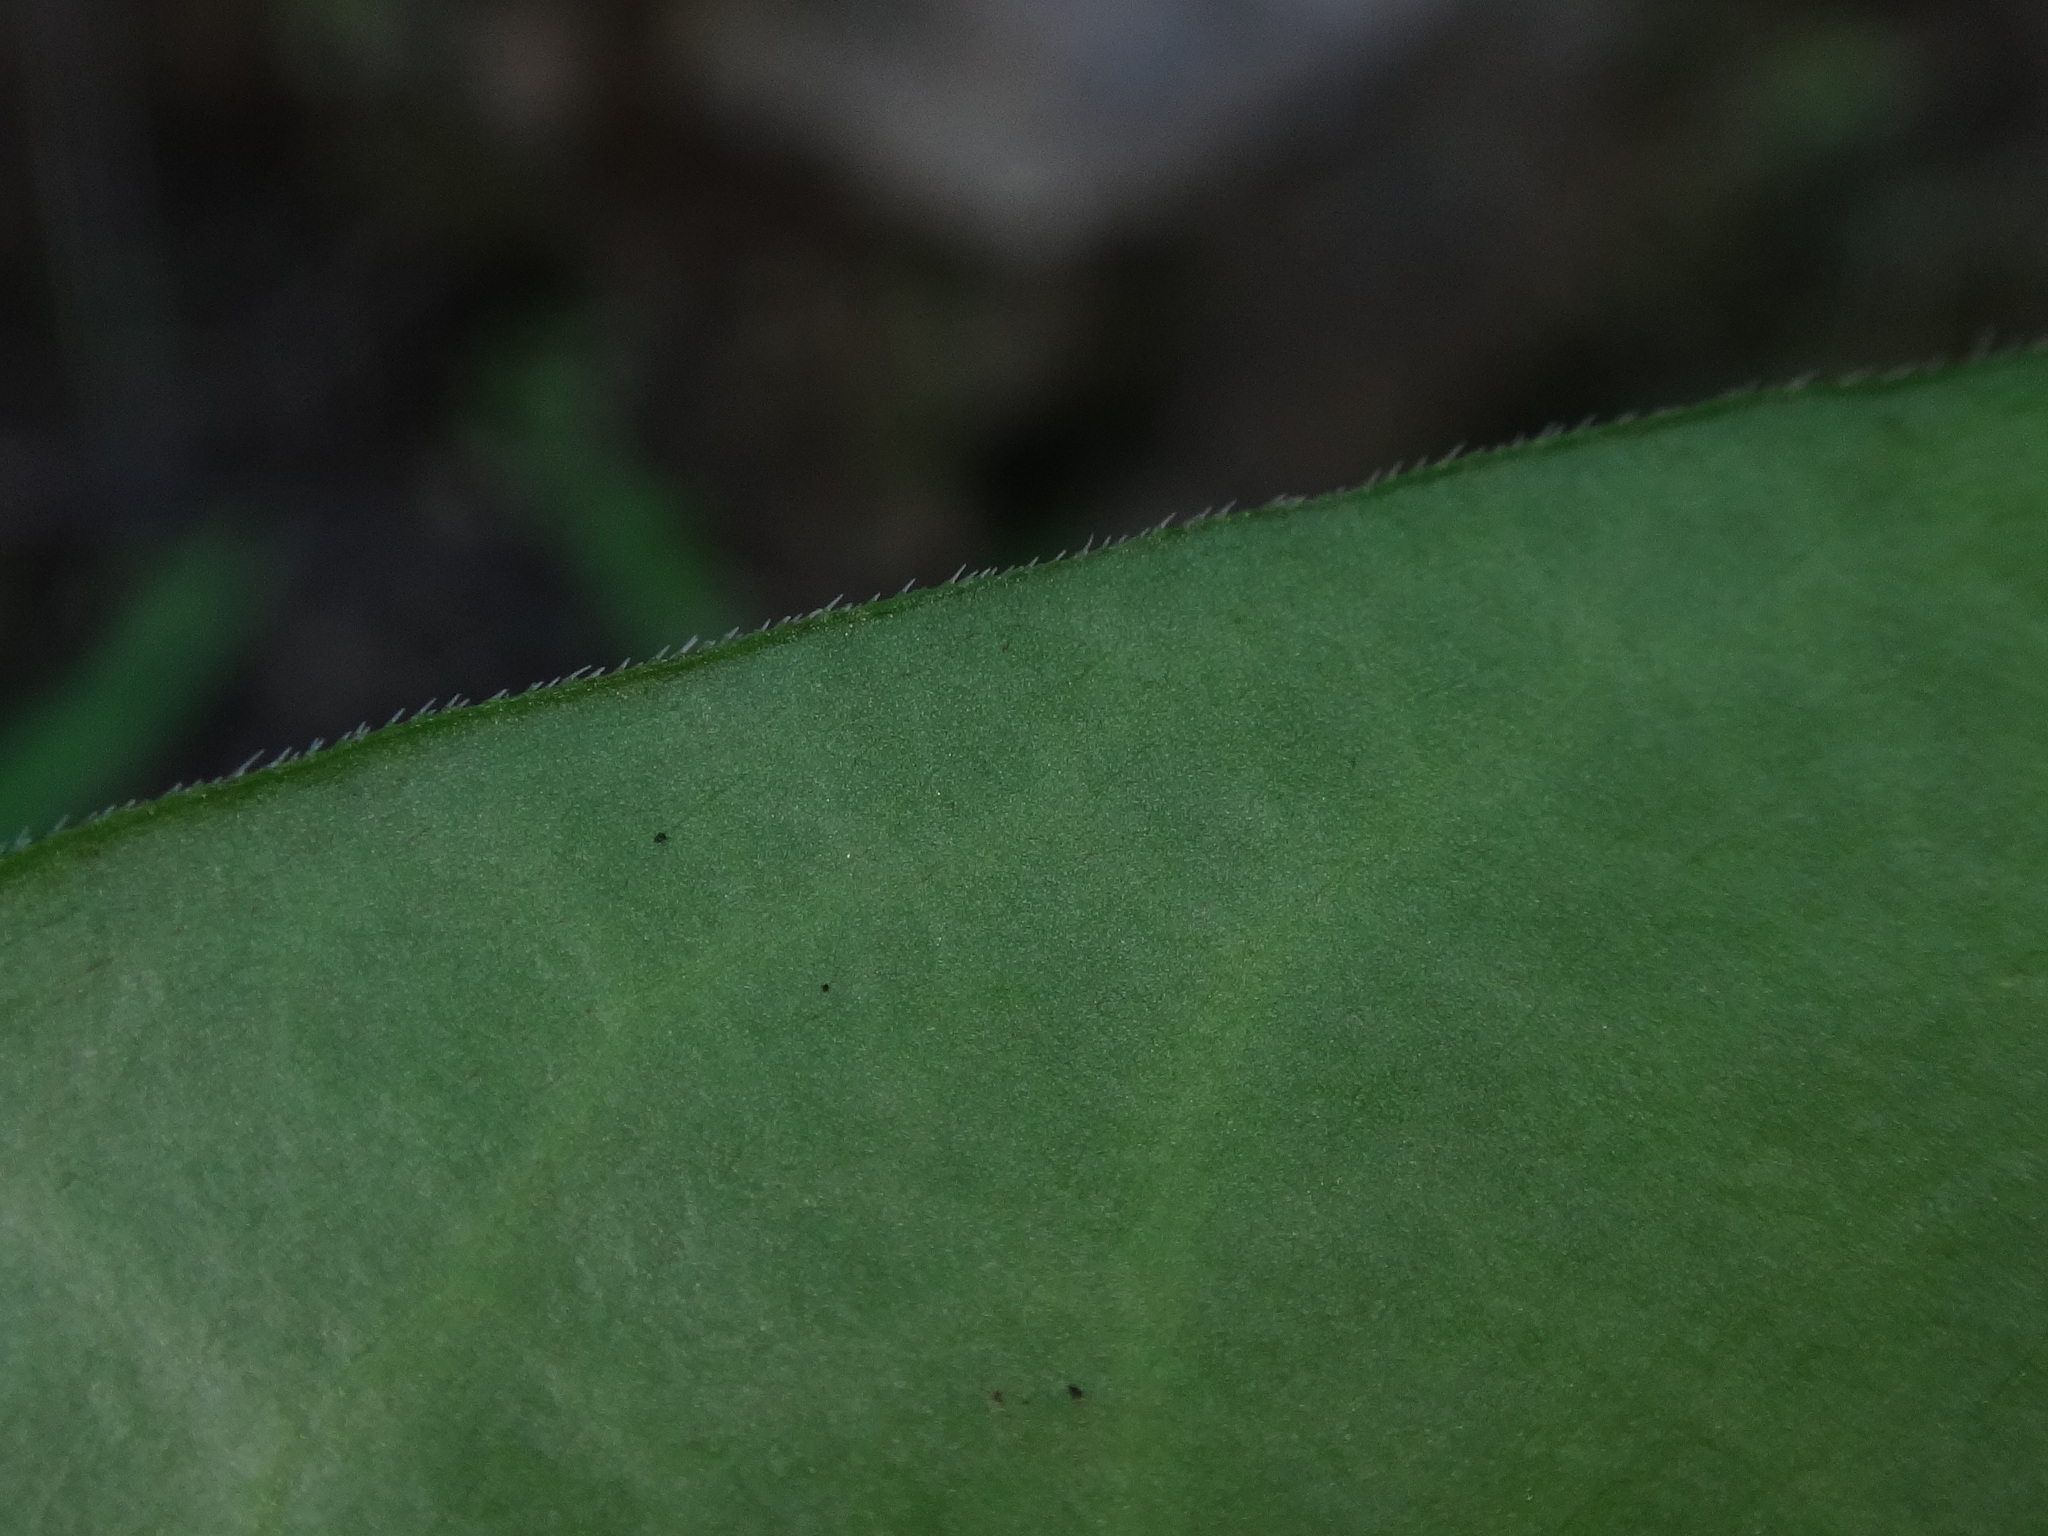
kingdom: Plantae
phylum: Tracheophyta
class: Magnoliopsida
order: Gentianales
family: Apocynaceae
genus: Vinca
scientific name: Vinca major
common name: Greater periwinkle
